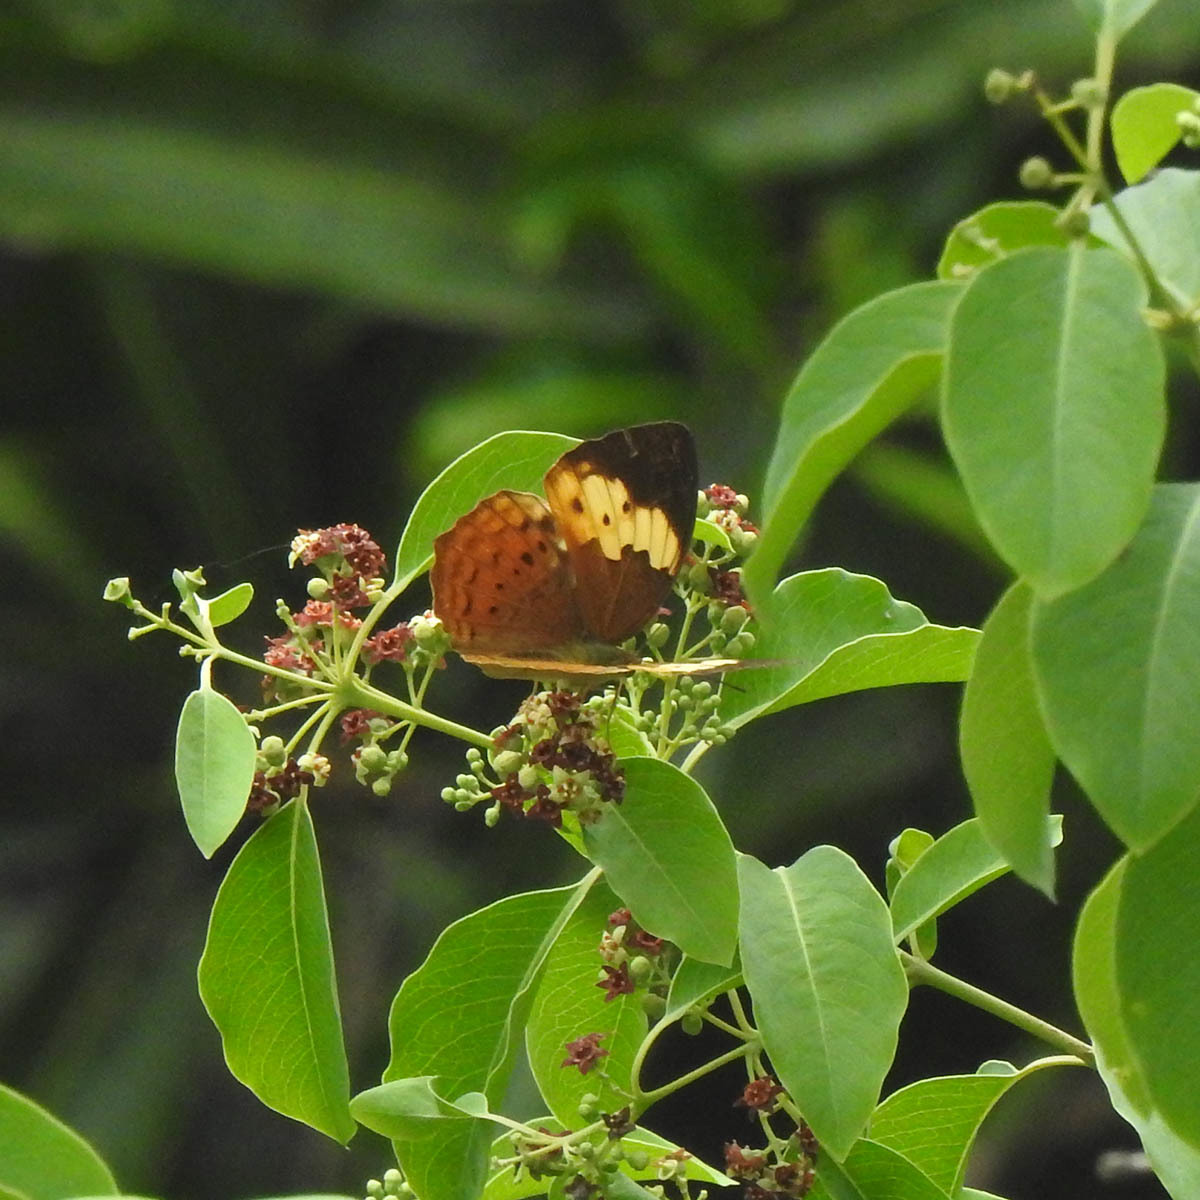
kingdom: Animalia
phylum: Arthropoda
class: Insecta
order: Lepidoptera
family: Nymphalidae
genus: Cupha
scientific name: Cupha erymanthis
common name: Rustic
